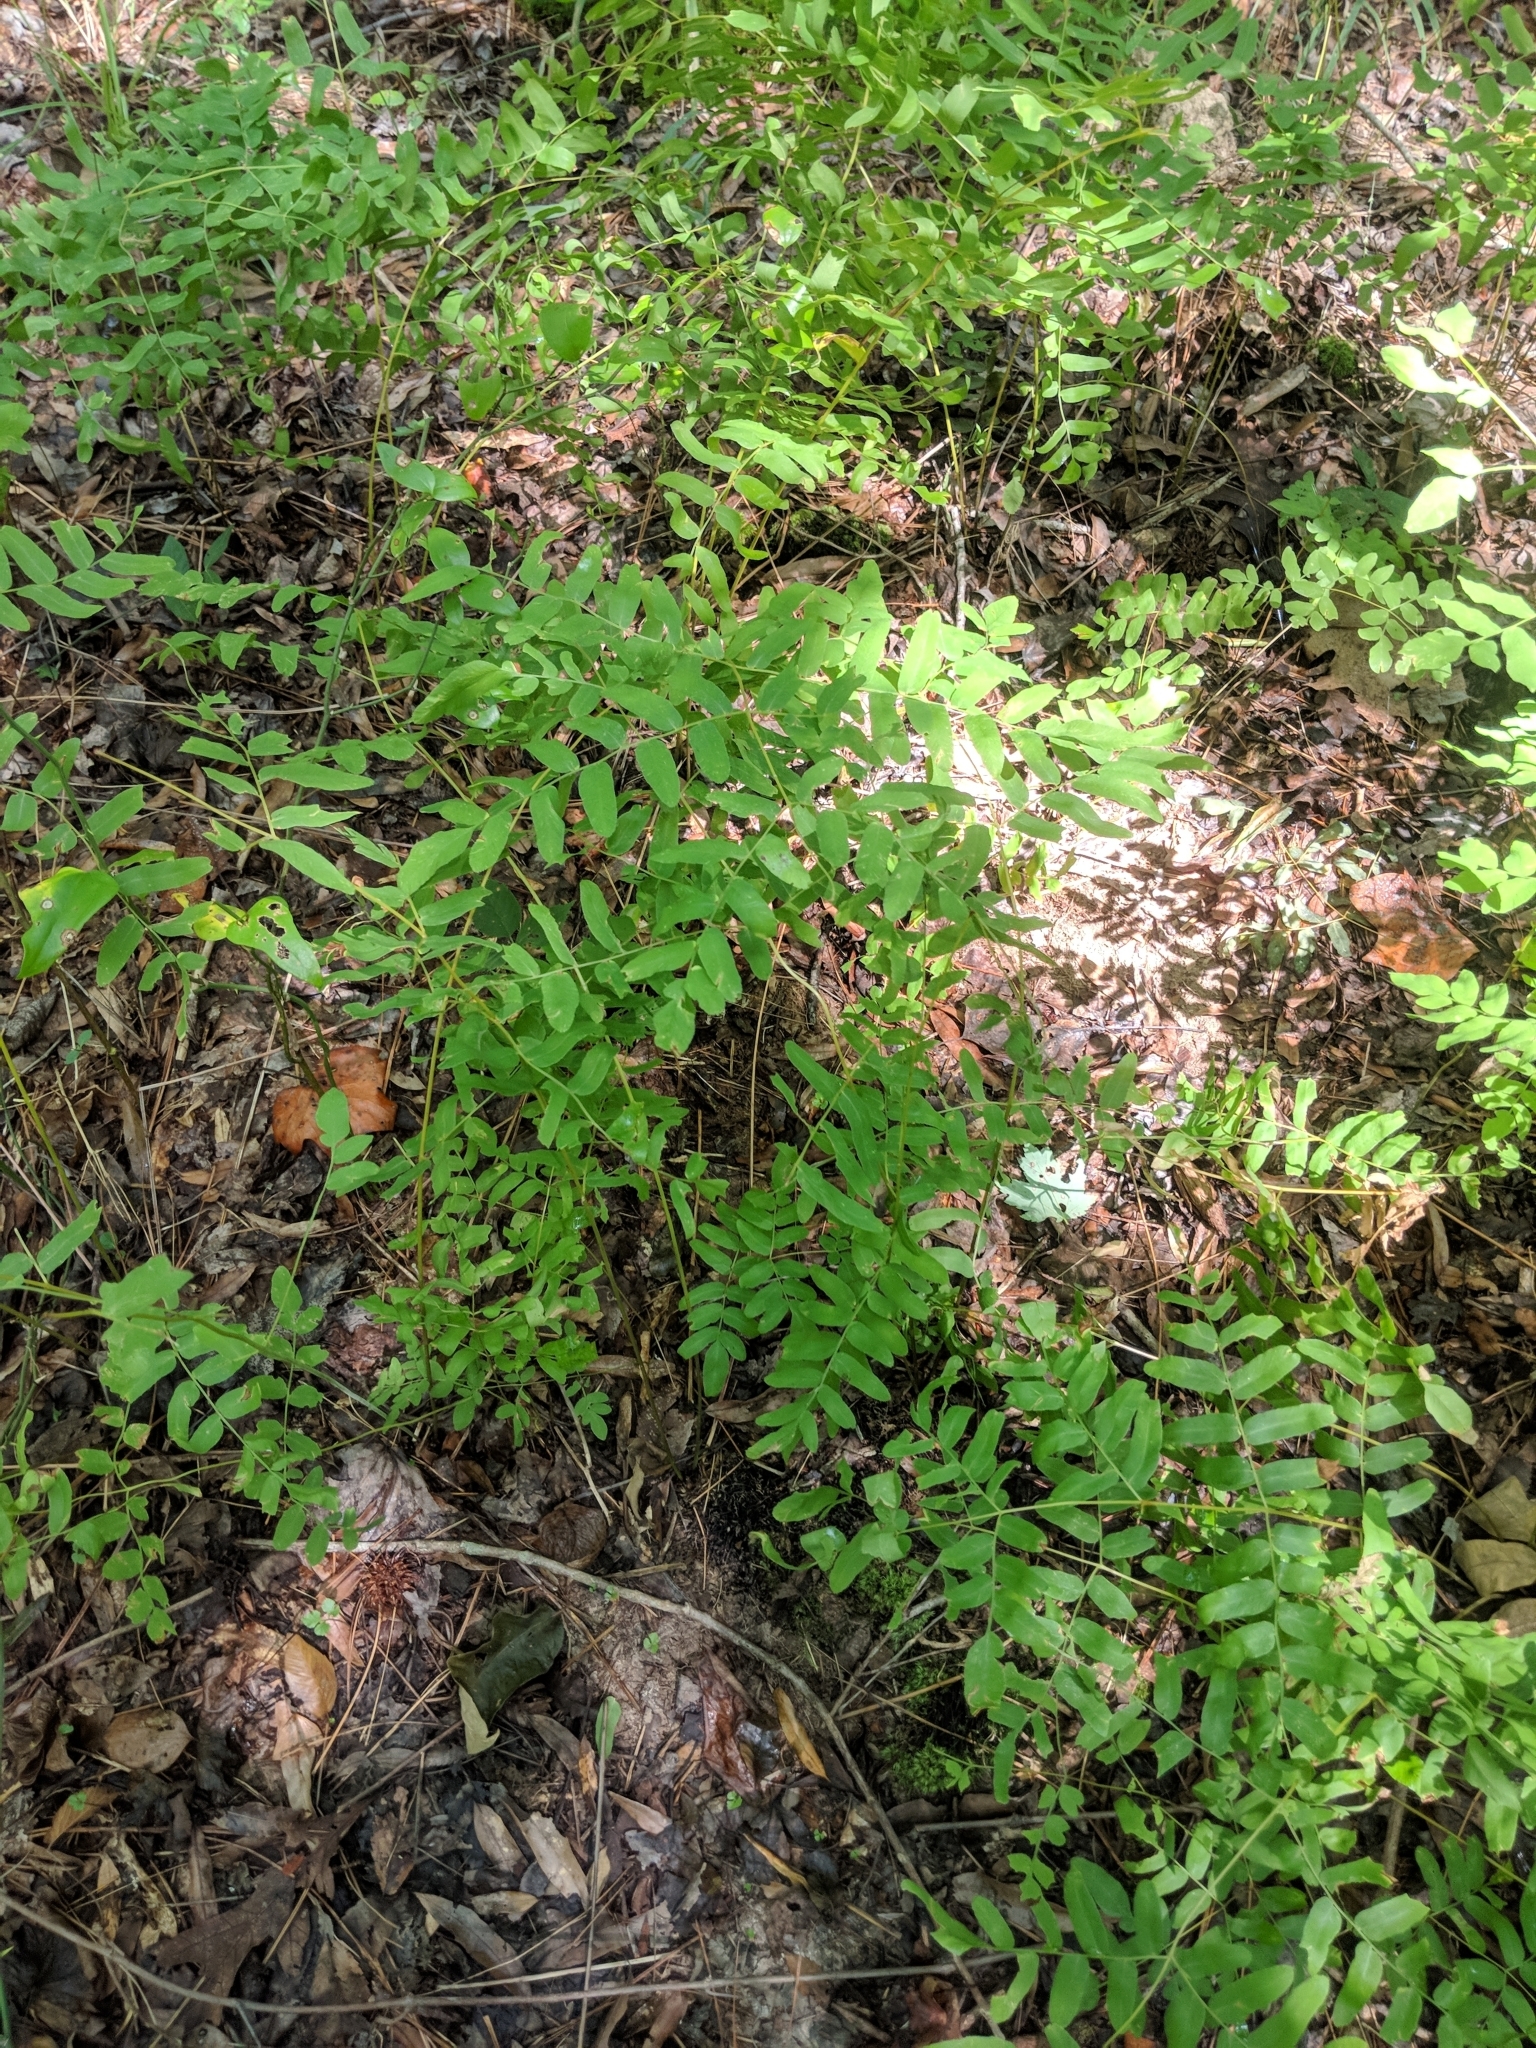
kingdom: Plantae
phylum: Tracheophyta
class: Polypodiopsida
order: Osmundales
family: Osmundaceae
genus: Osmunda
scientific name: Osmunda spectabilis
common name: American royal fern
